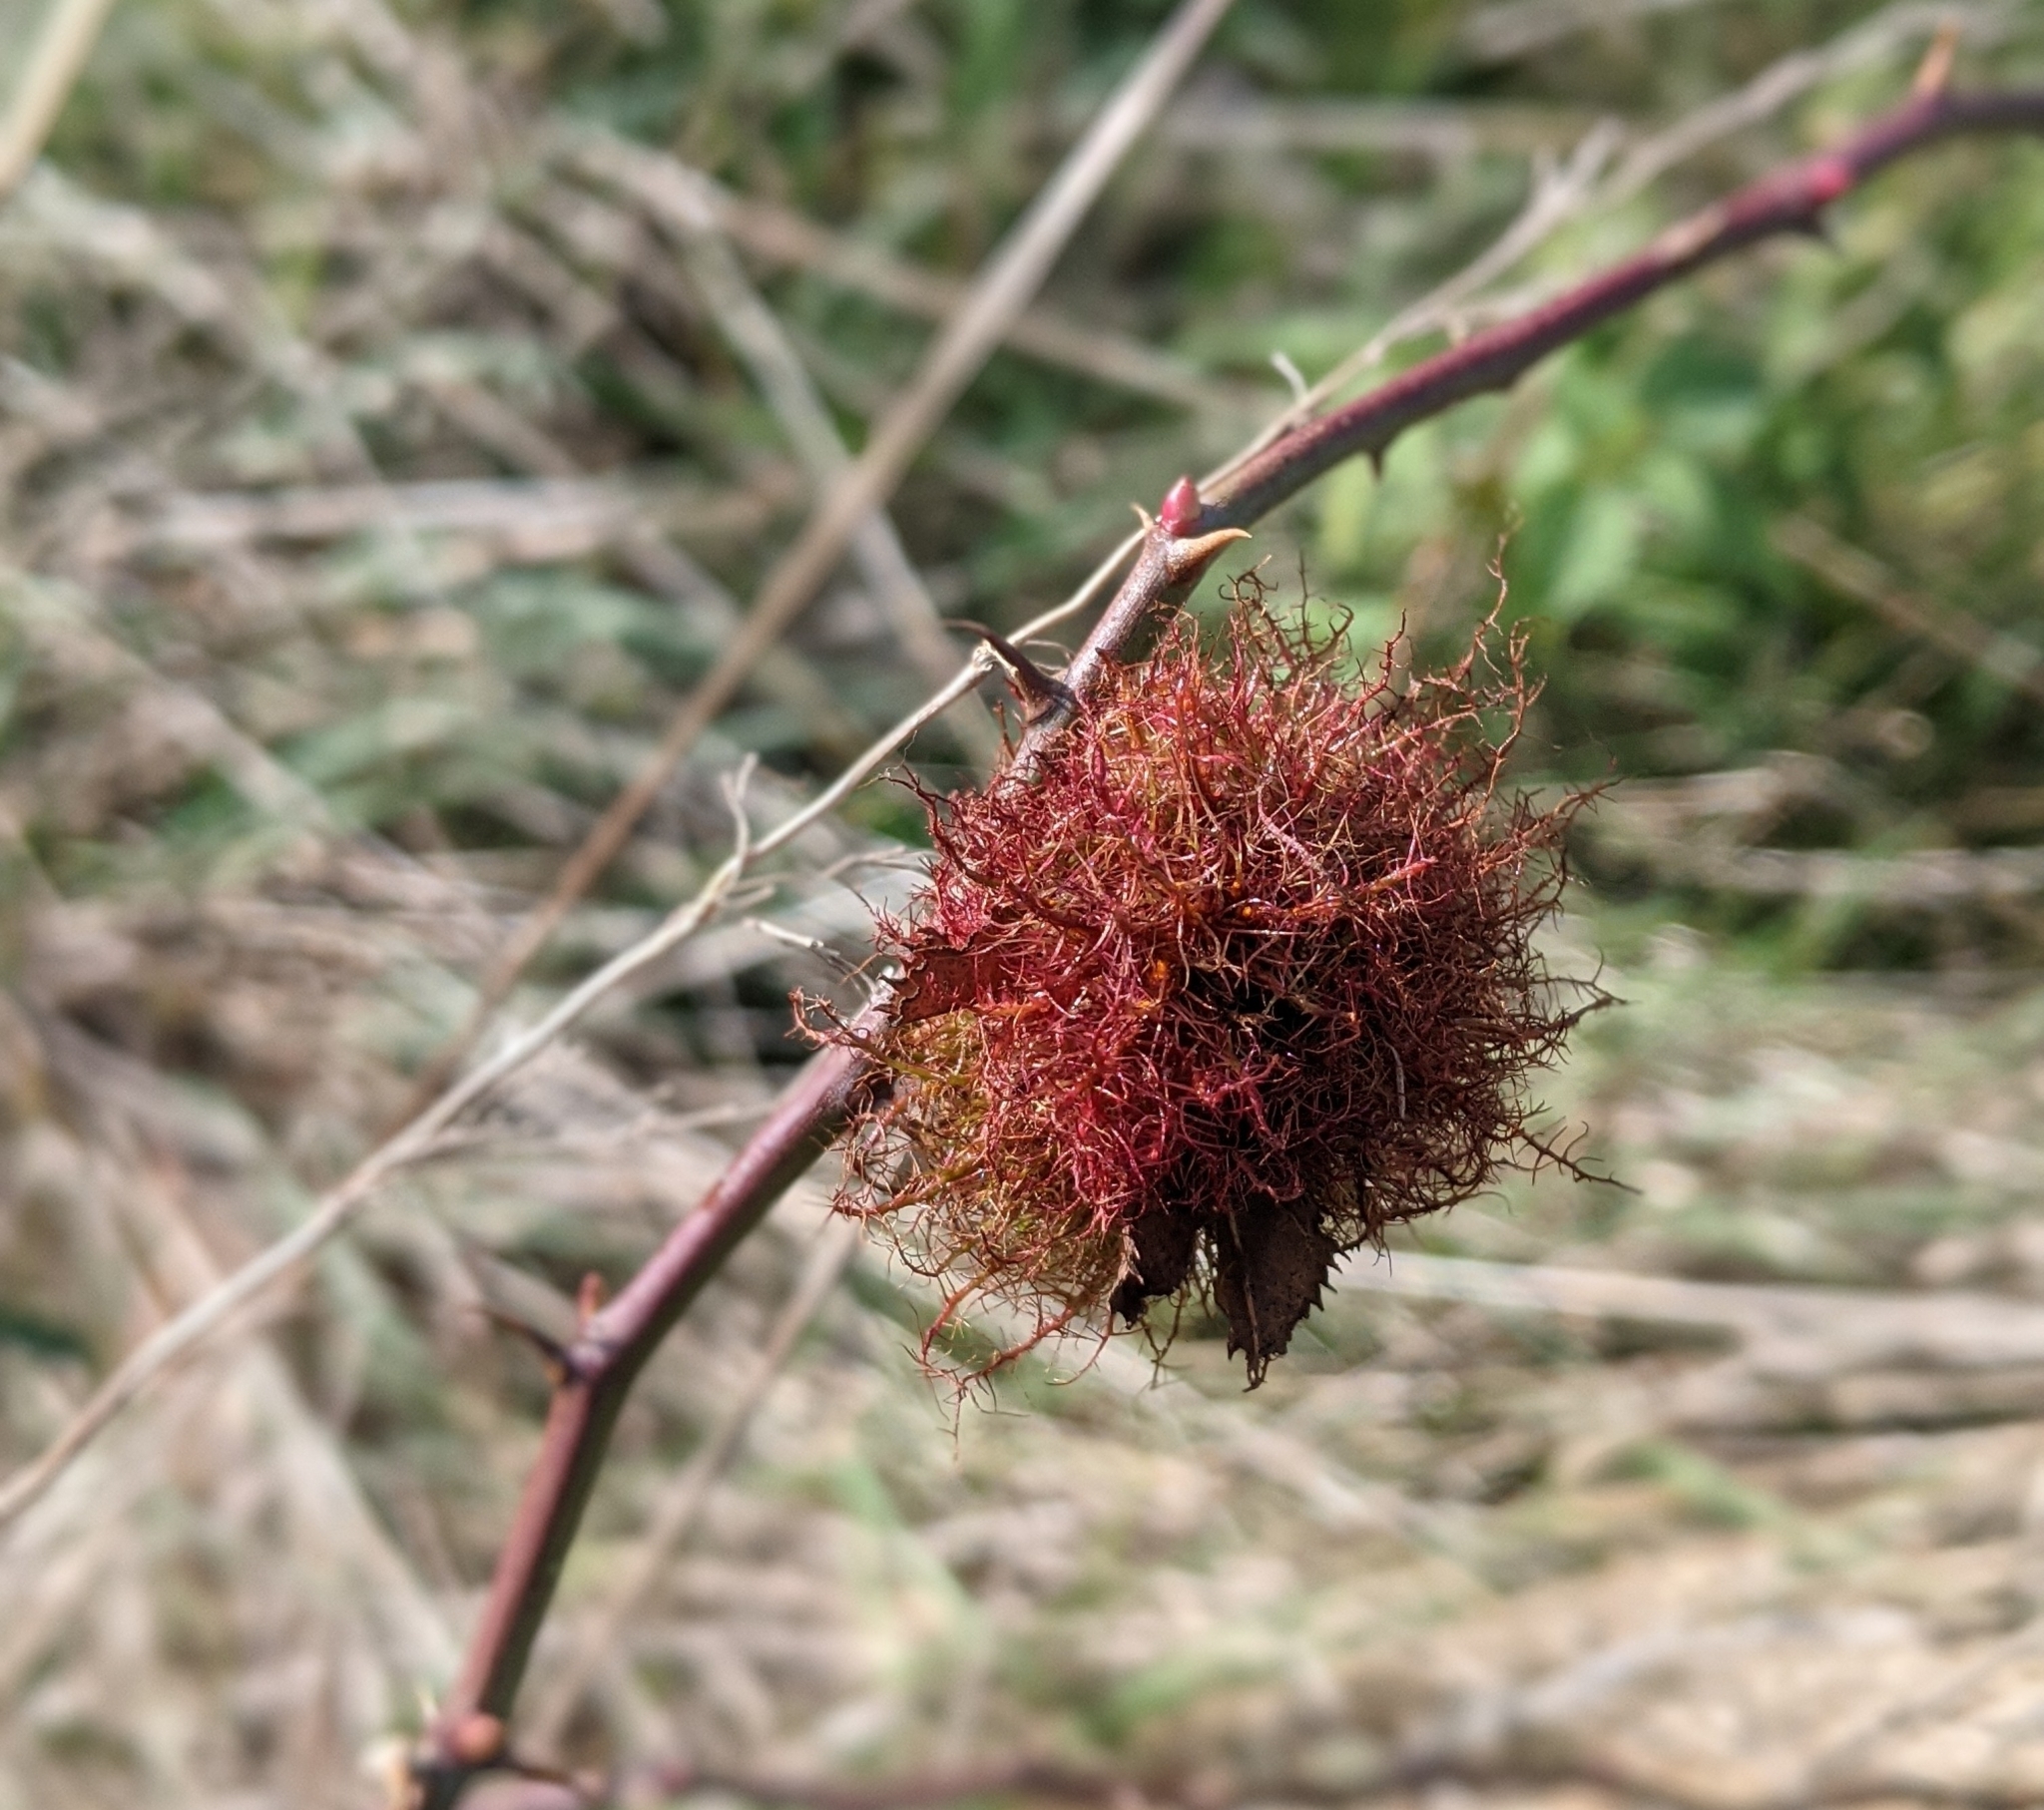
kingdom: Animalia
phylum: Arthropoda
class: Insecta
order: Hymenoptera
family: Cynipidae
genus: Diplolepis
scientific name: Diplolepis rosae
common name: Bedeguar gall
